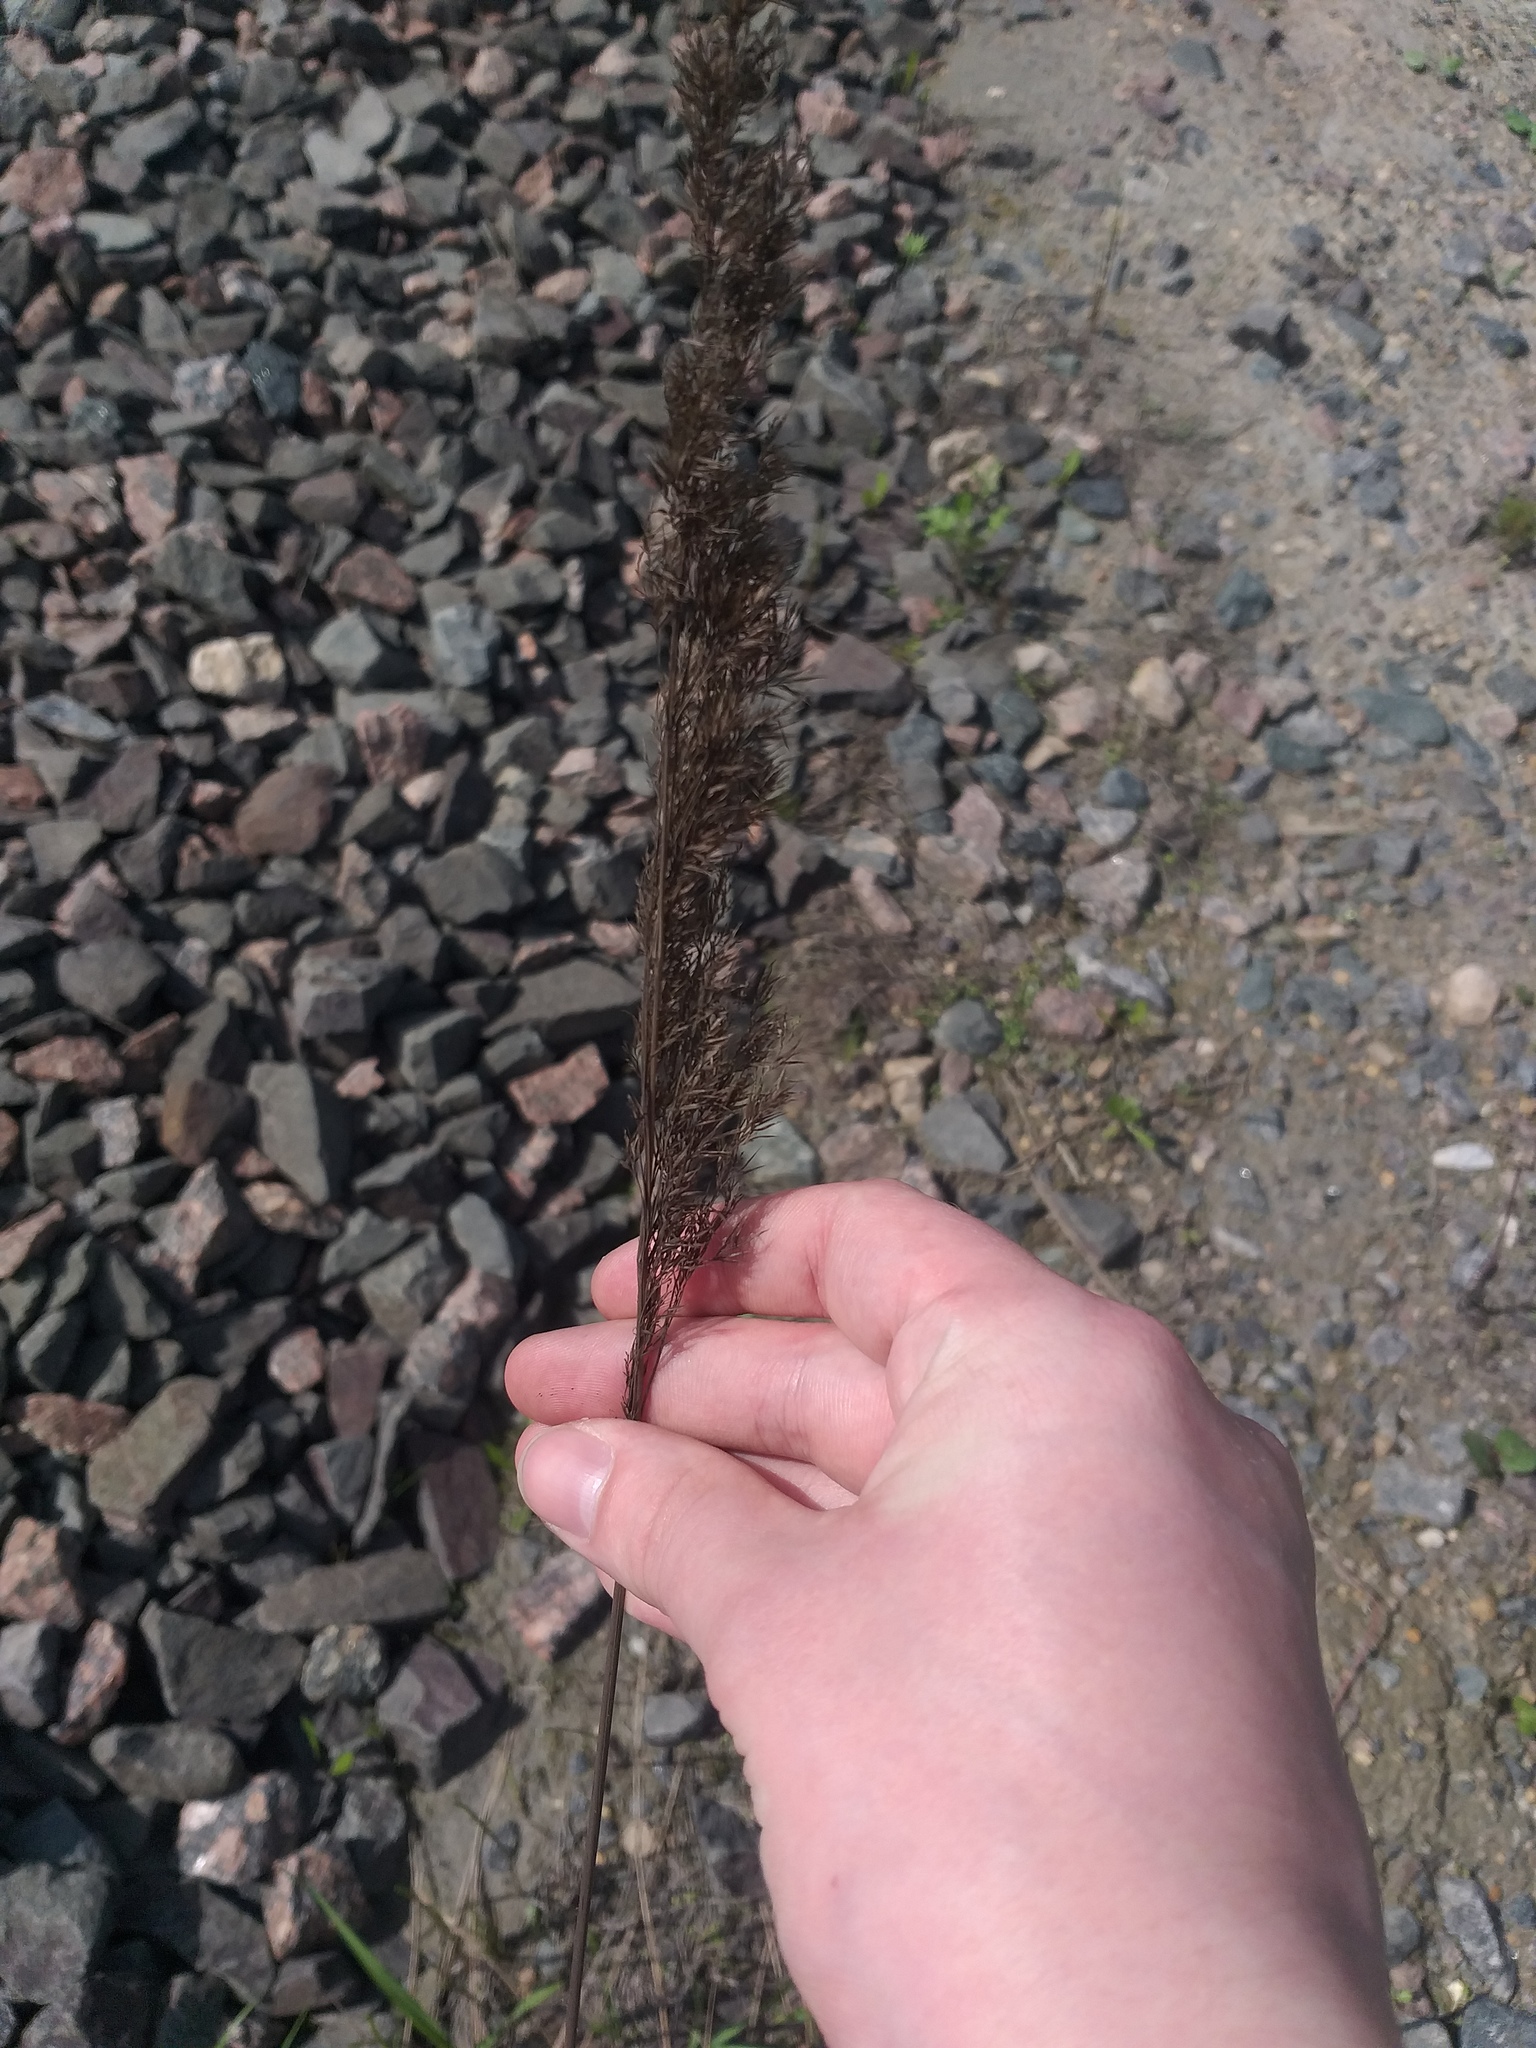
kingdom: Plantae
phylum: Tracheophyta
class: Liliopsida
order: Poales
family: Poaceae
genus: Calamagrostis
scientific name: Calamagrostis epigejos
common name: Wood small-reed
